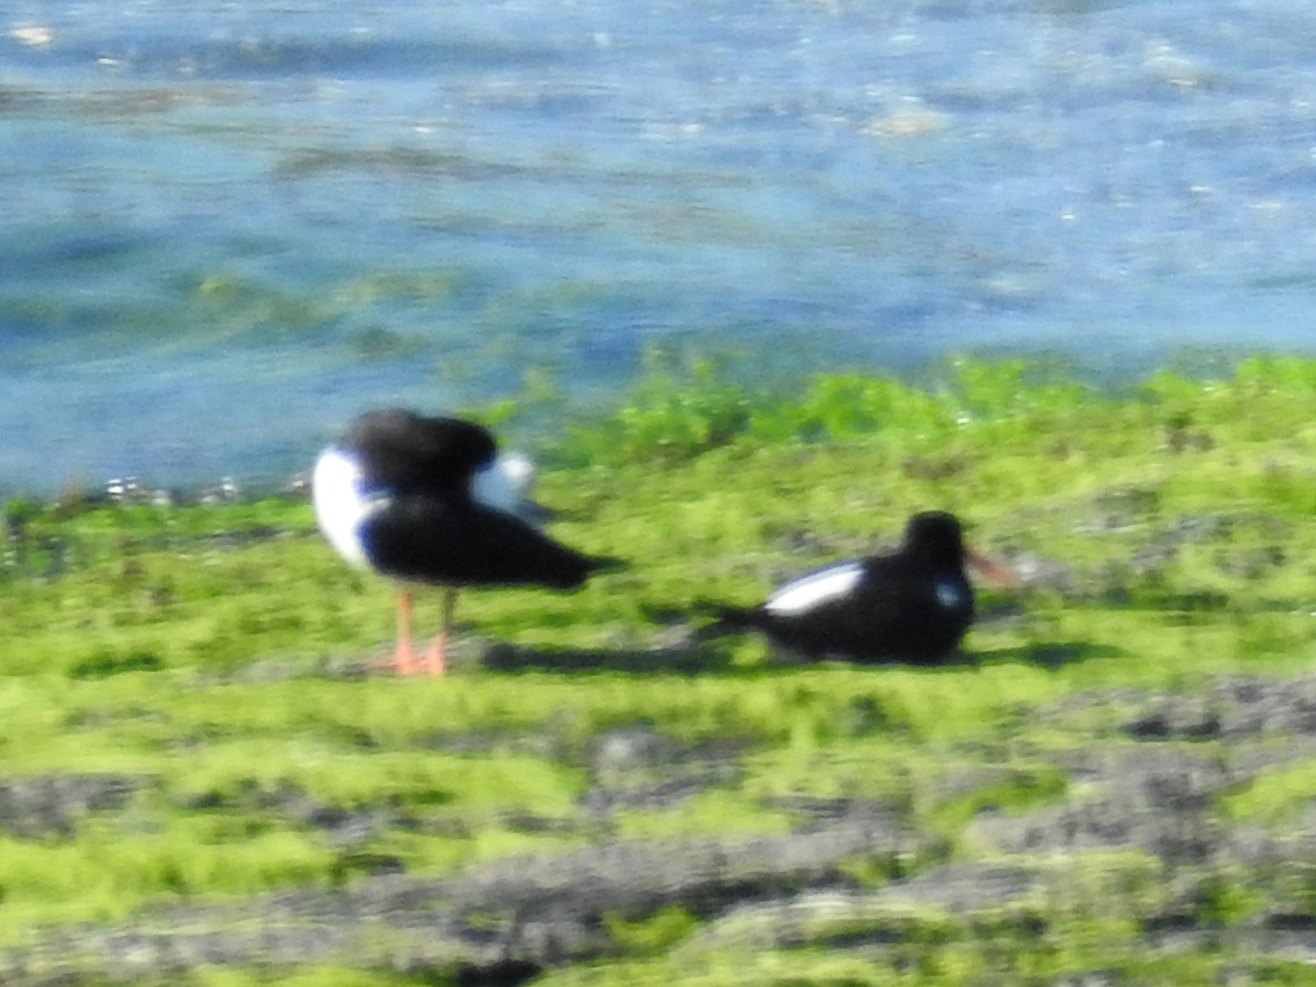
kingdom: Animalia
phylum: Chordata
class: Aves
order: Charadriiformes
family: Haematopodidae
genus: Haematopus
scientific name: Haematopus ostralegus
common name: Eurasian oystercatcher
